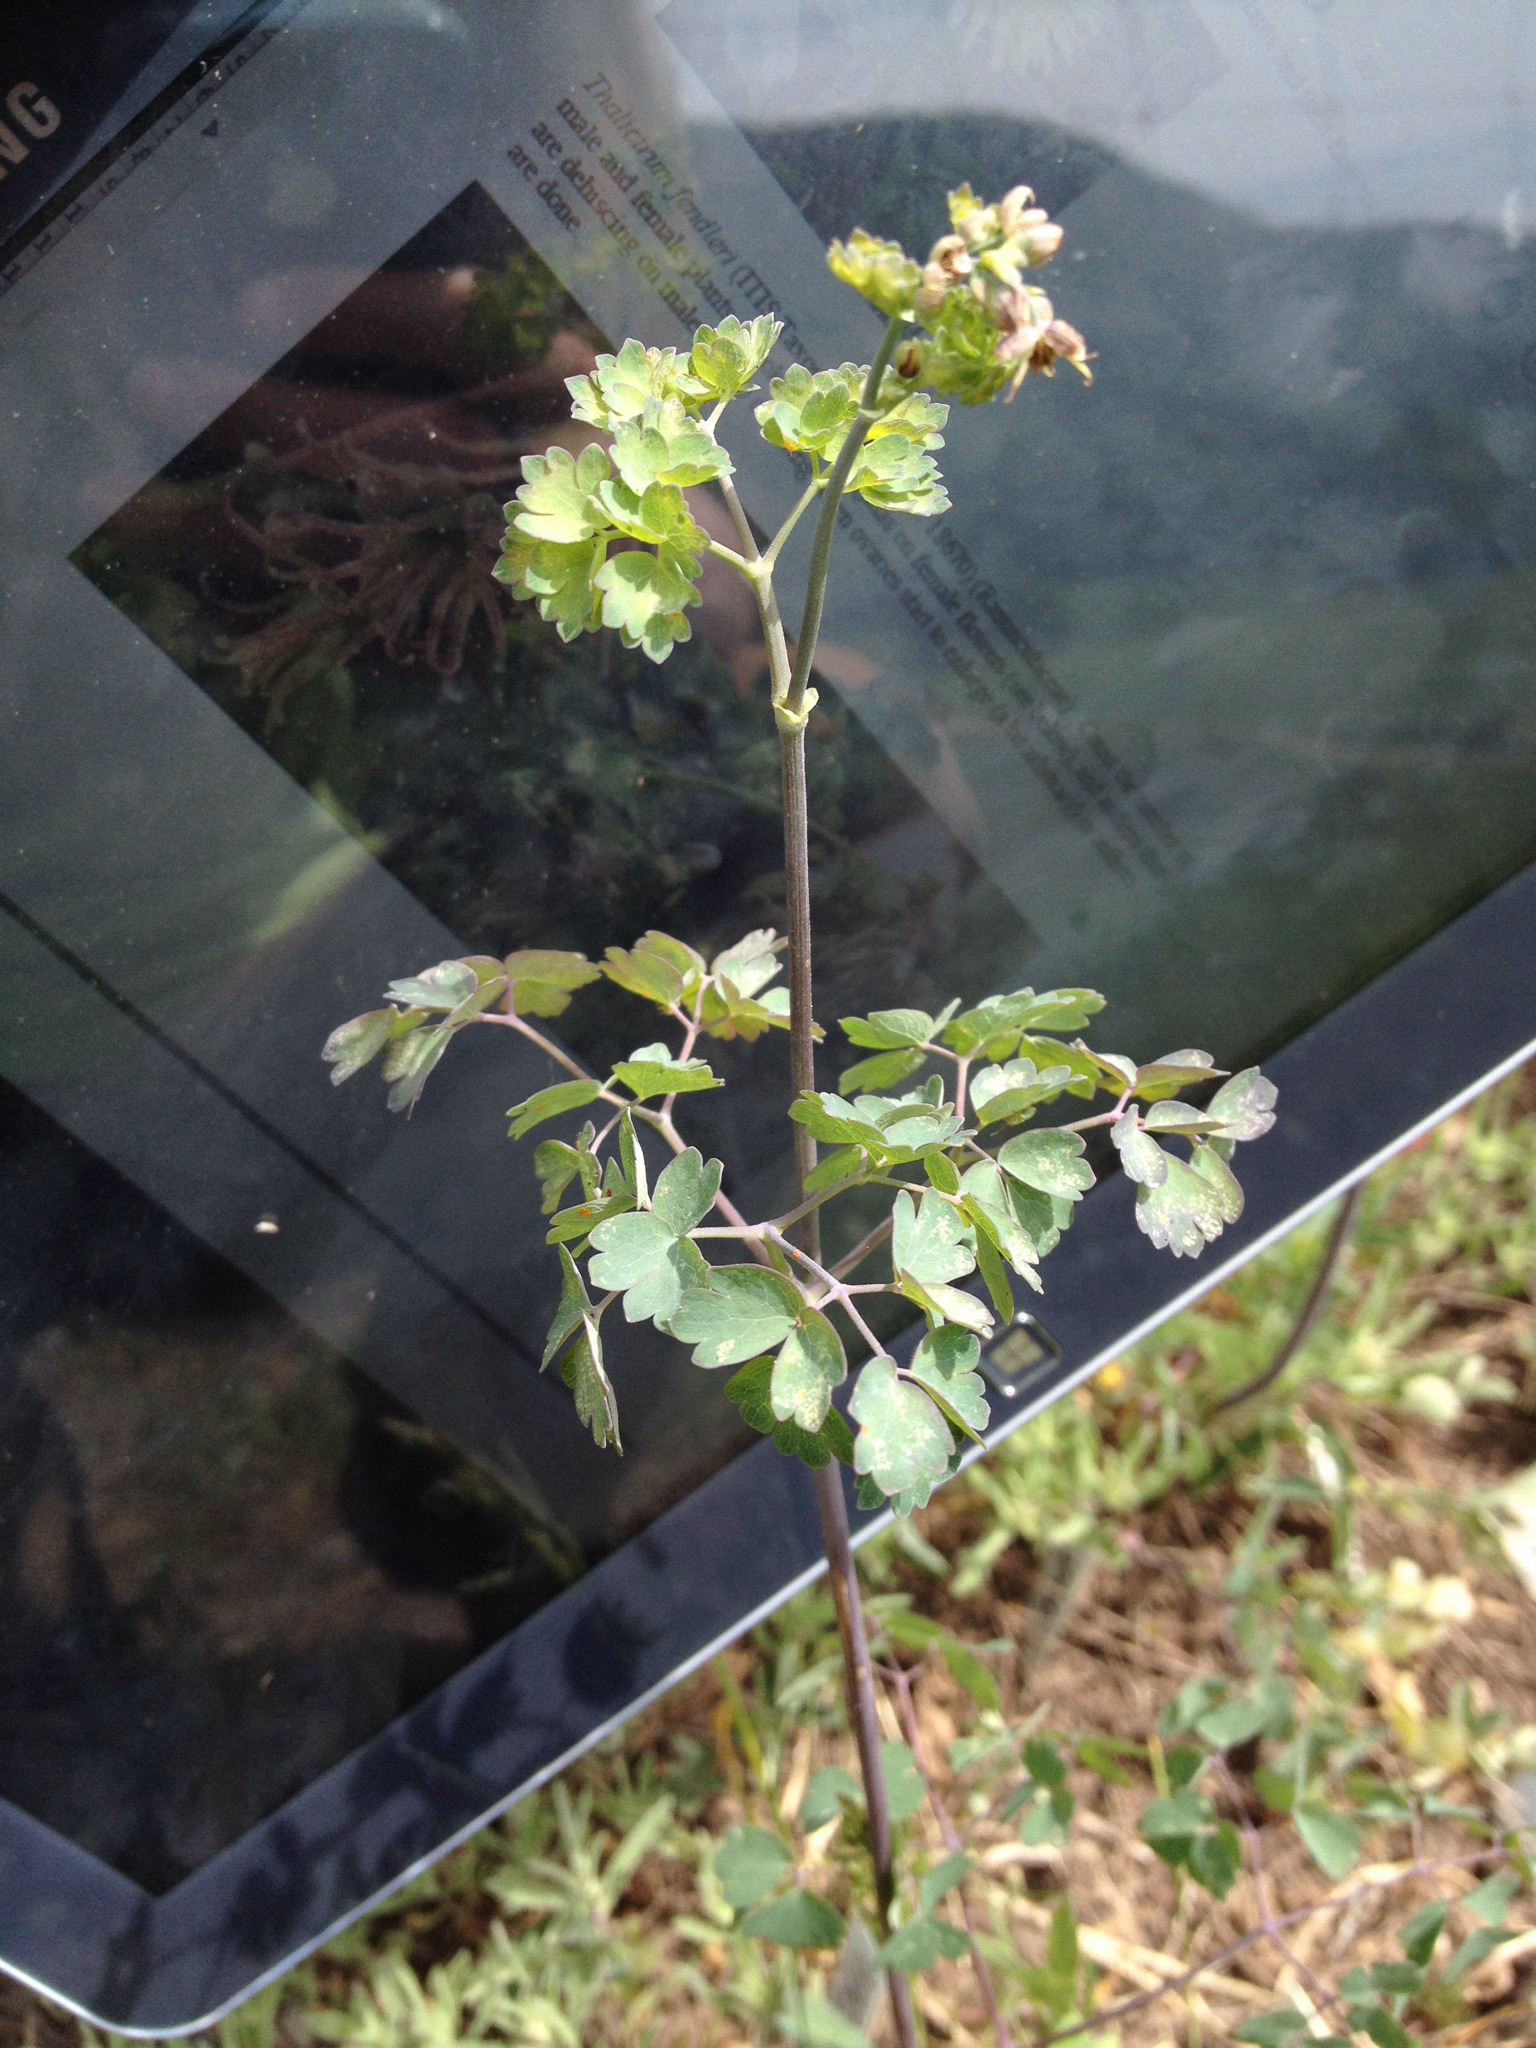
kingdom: Plantae
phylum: Tracheophyta
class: Magnoliopsida
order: Ranunculales
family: Ranunculaceae
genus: Thalictrum
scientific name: Thalictrum fendleri
